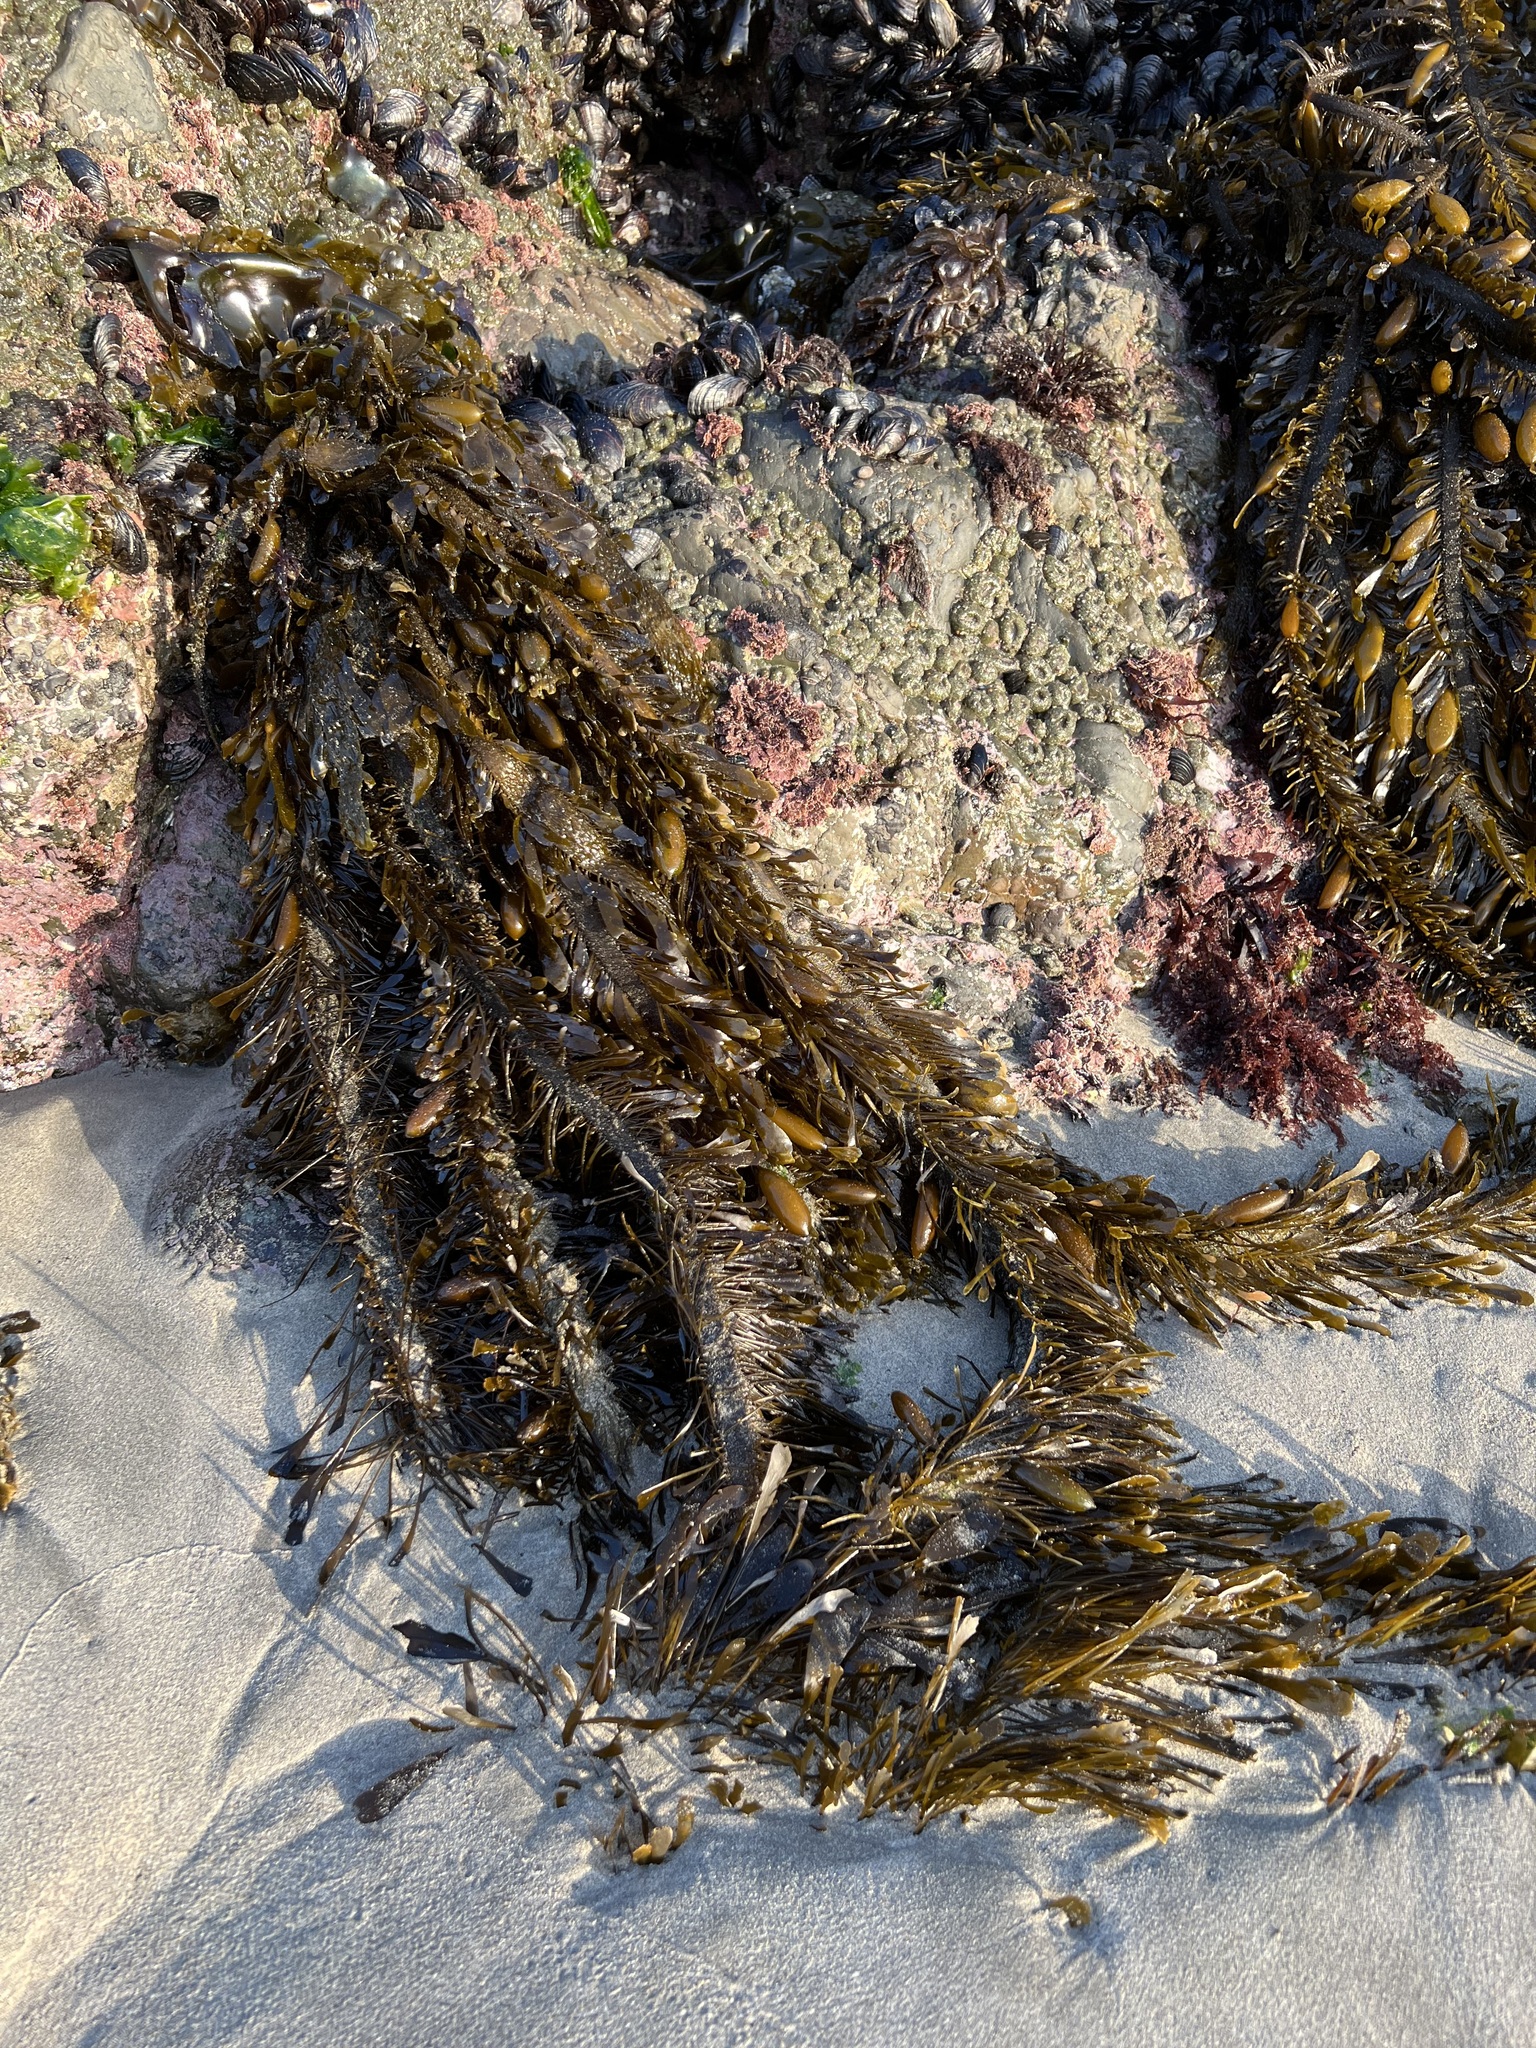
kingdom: Chromista
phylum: Ochrophyta
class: Phaeophyceae
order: Laminariales
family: Lessoniaceae
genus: Egregia
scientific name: Egregia menziesii
